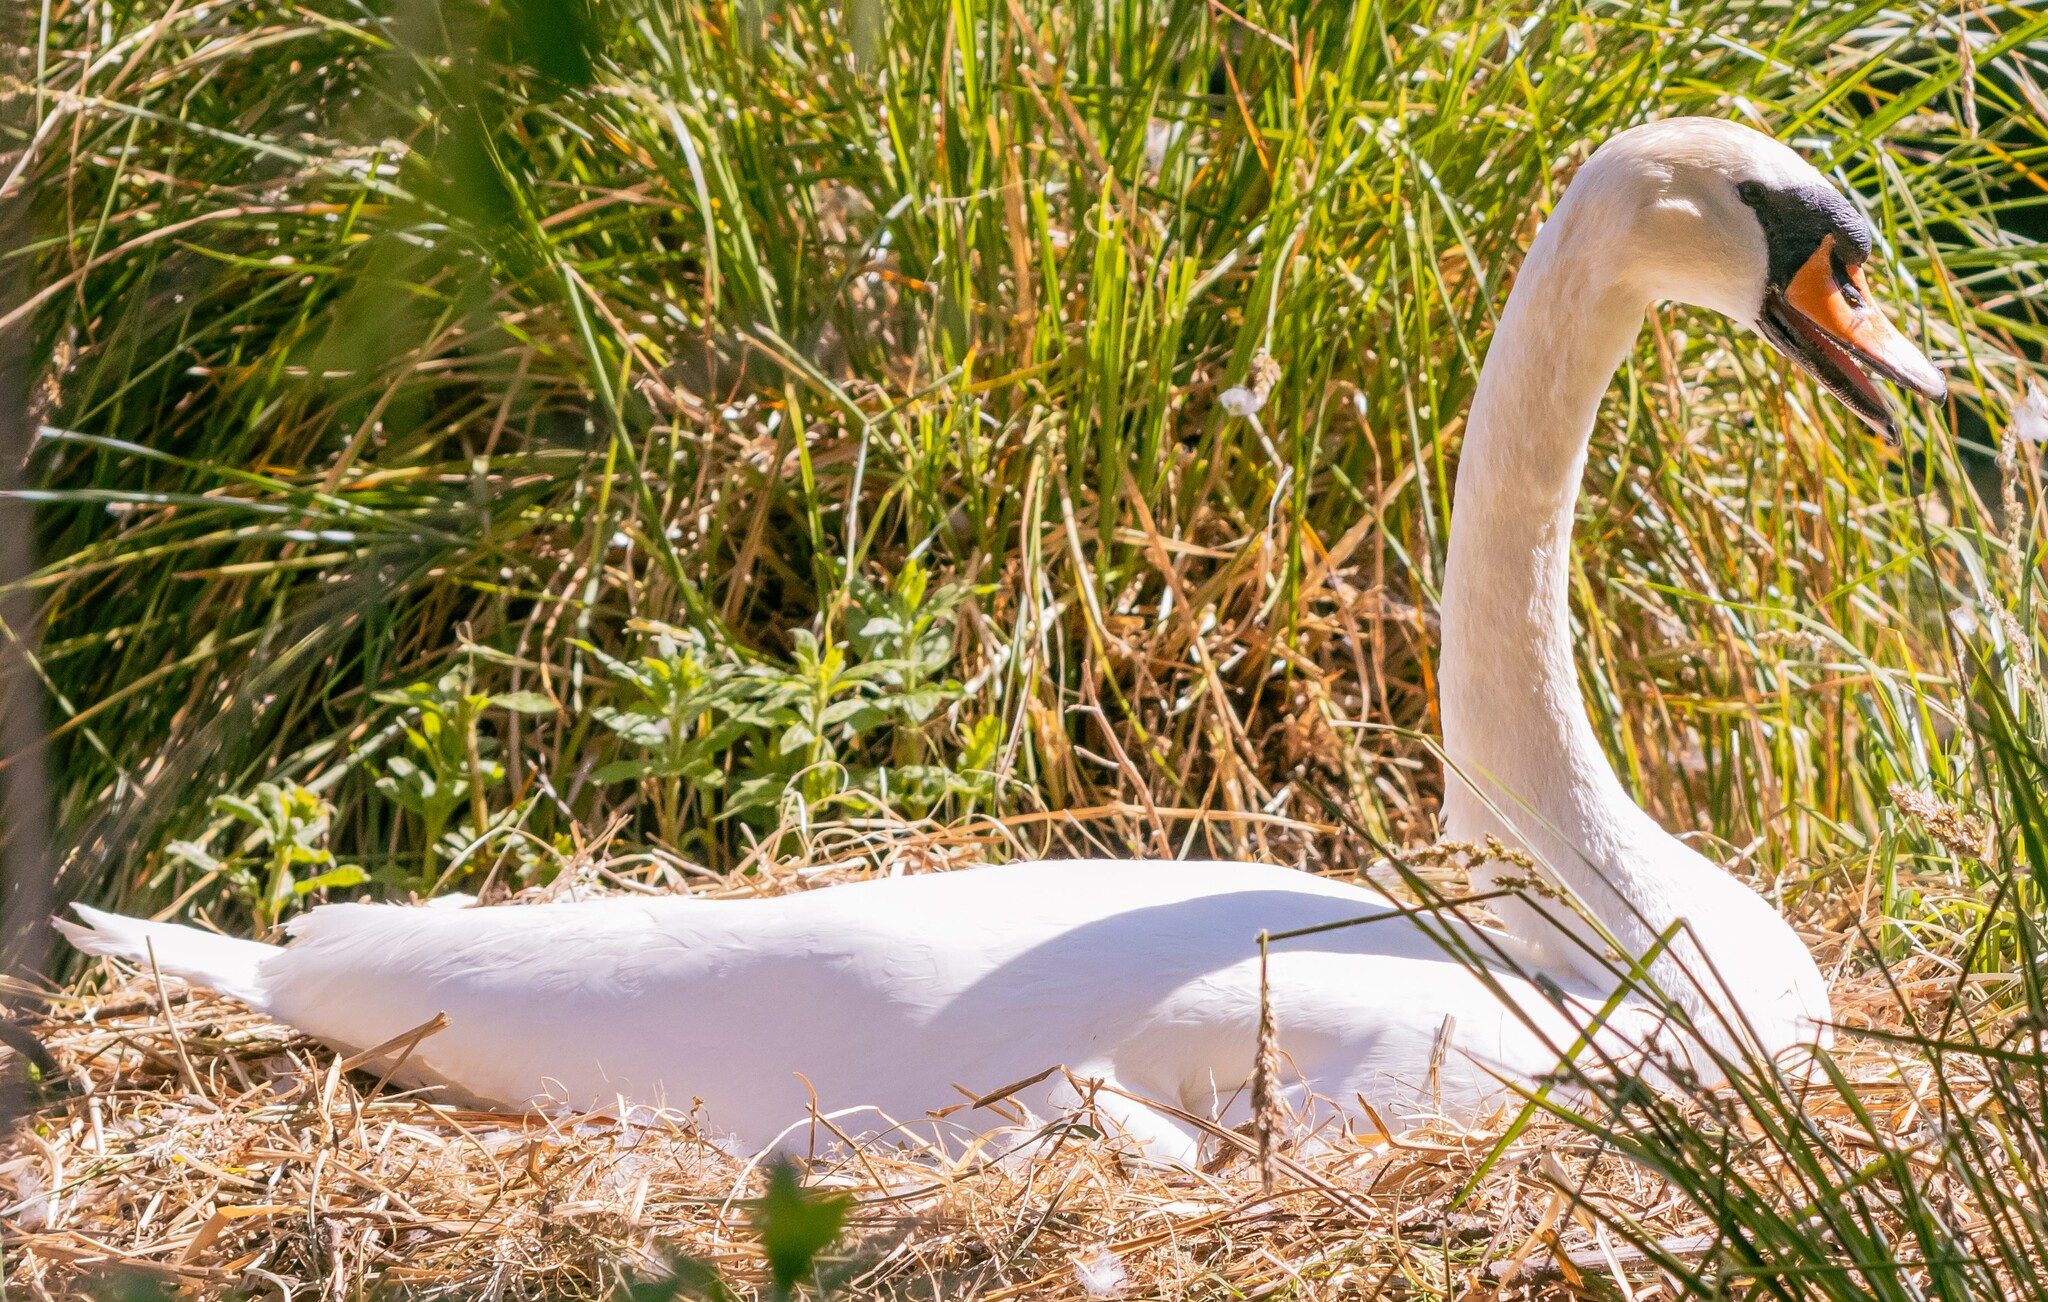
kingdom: Animalia
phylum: Chordata
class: Aves
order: Anseriformes
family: Anatidae
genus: Cygnus
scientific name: Cygnus olor
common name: Mute swan
